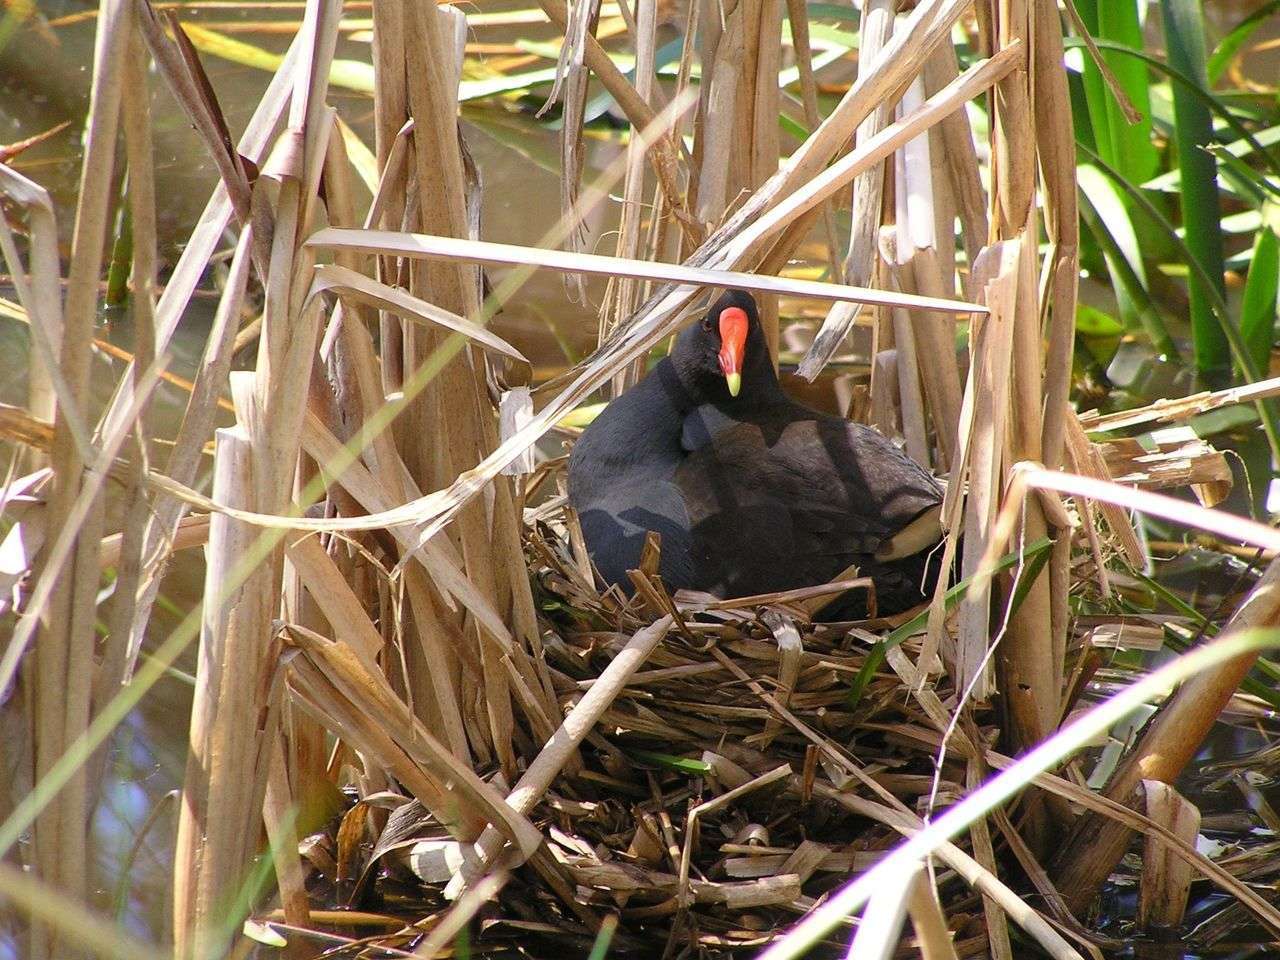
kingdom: Animalia
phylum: Chordata
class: Aves
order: Gruiformes
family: Rallidae
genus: Gallinula
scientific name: Gallinula tenebrosa
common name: Dusky moorhen
